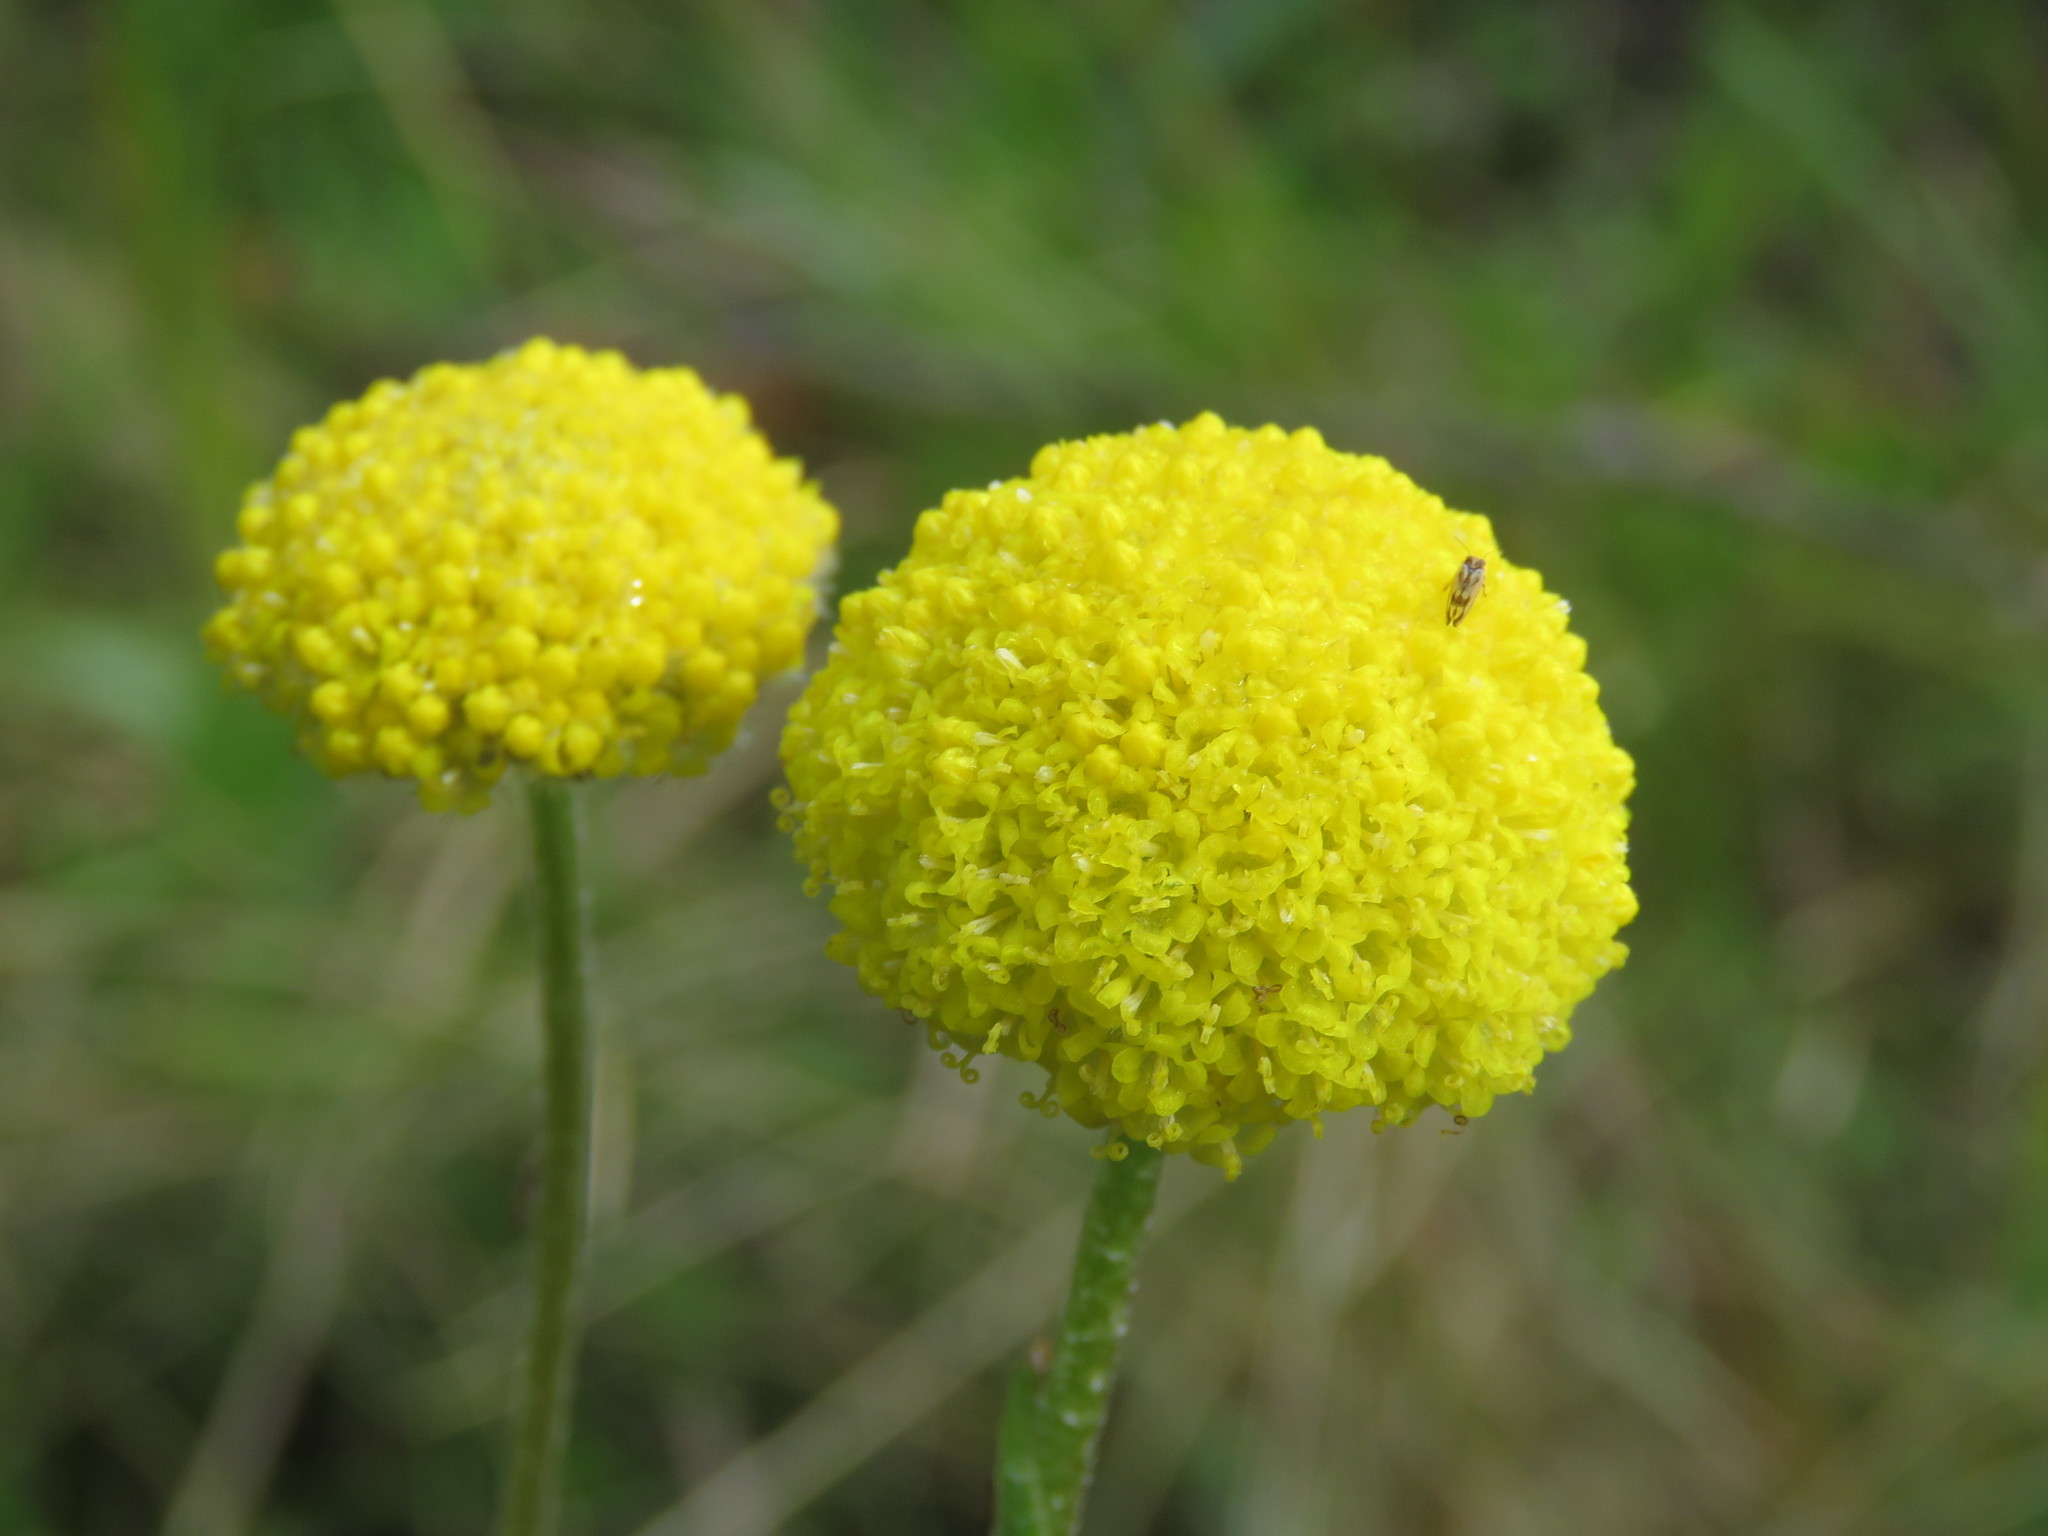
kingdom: Plantae
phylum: Tracheophyta
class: Magnoliopsida
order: Asterales
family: Asteraceae
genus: Craspedia
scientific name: Craspedia variabilis
